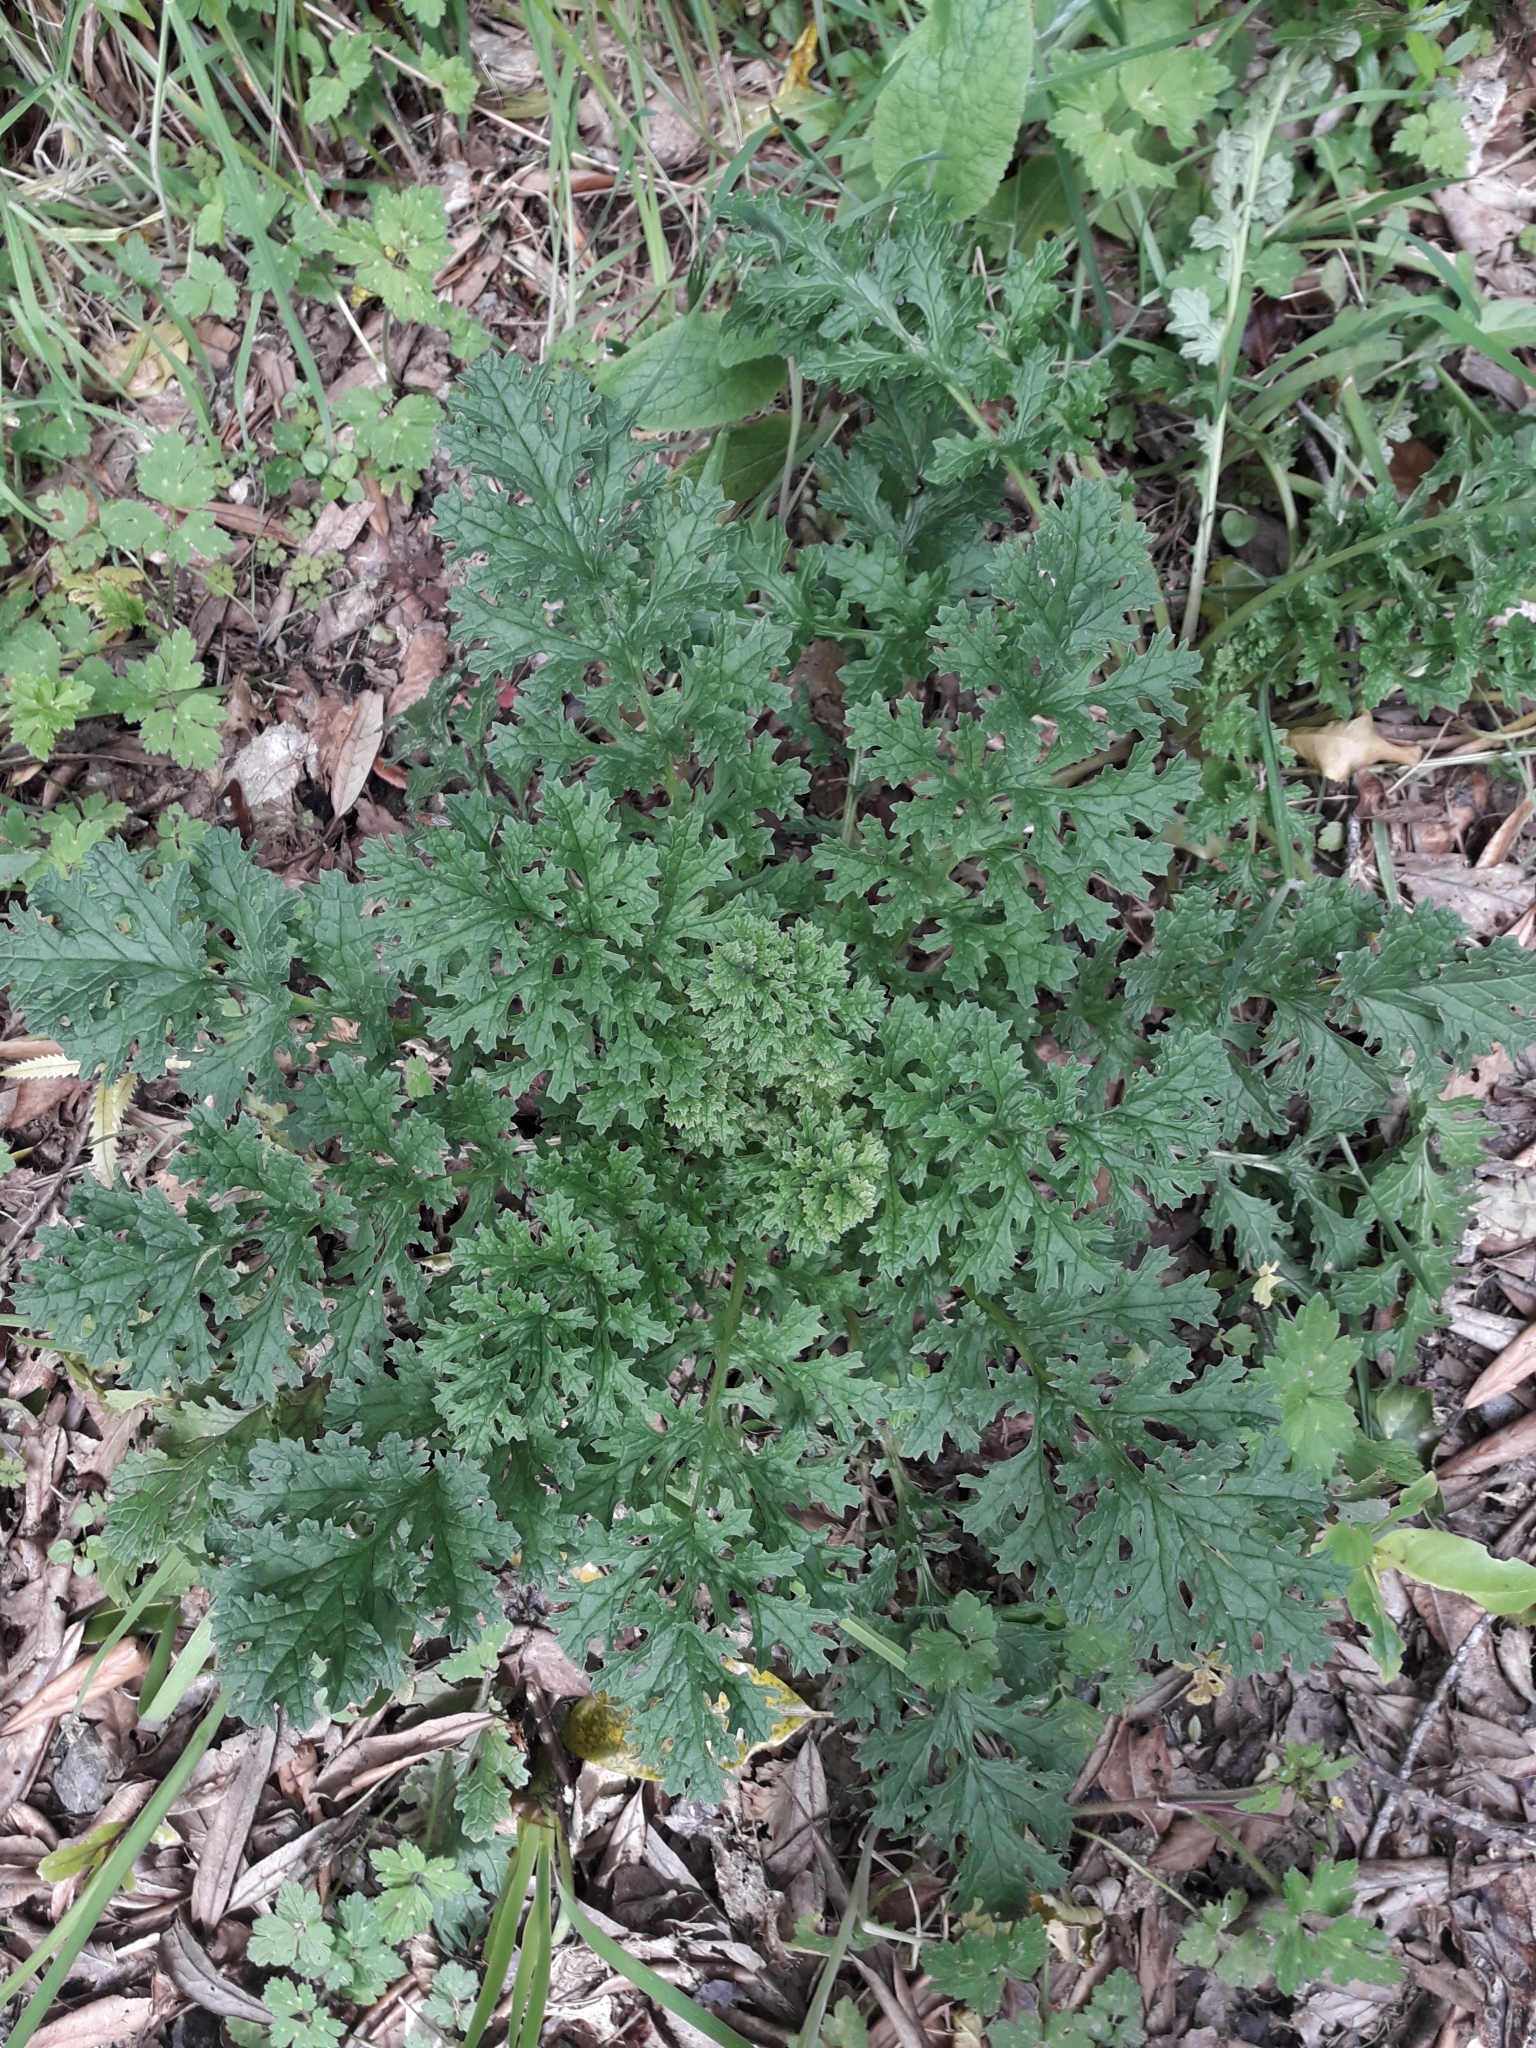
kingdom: Plantae
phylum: Tracheophyta
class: Magnoliopsida
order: Asterales
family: Asteraceae
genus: Jacobaea
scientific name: Jacobaea vulgaris
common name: Stinking willie
